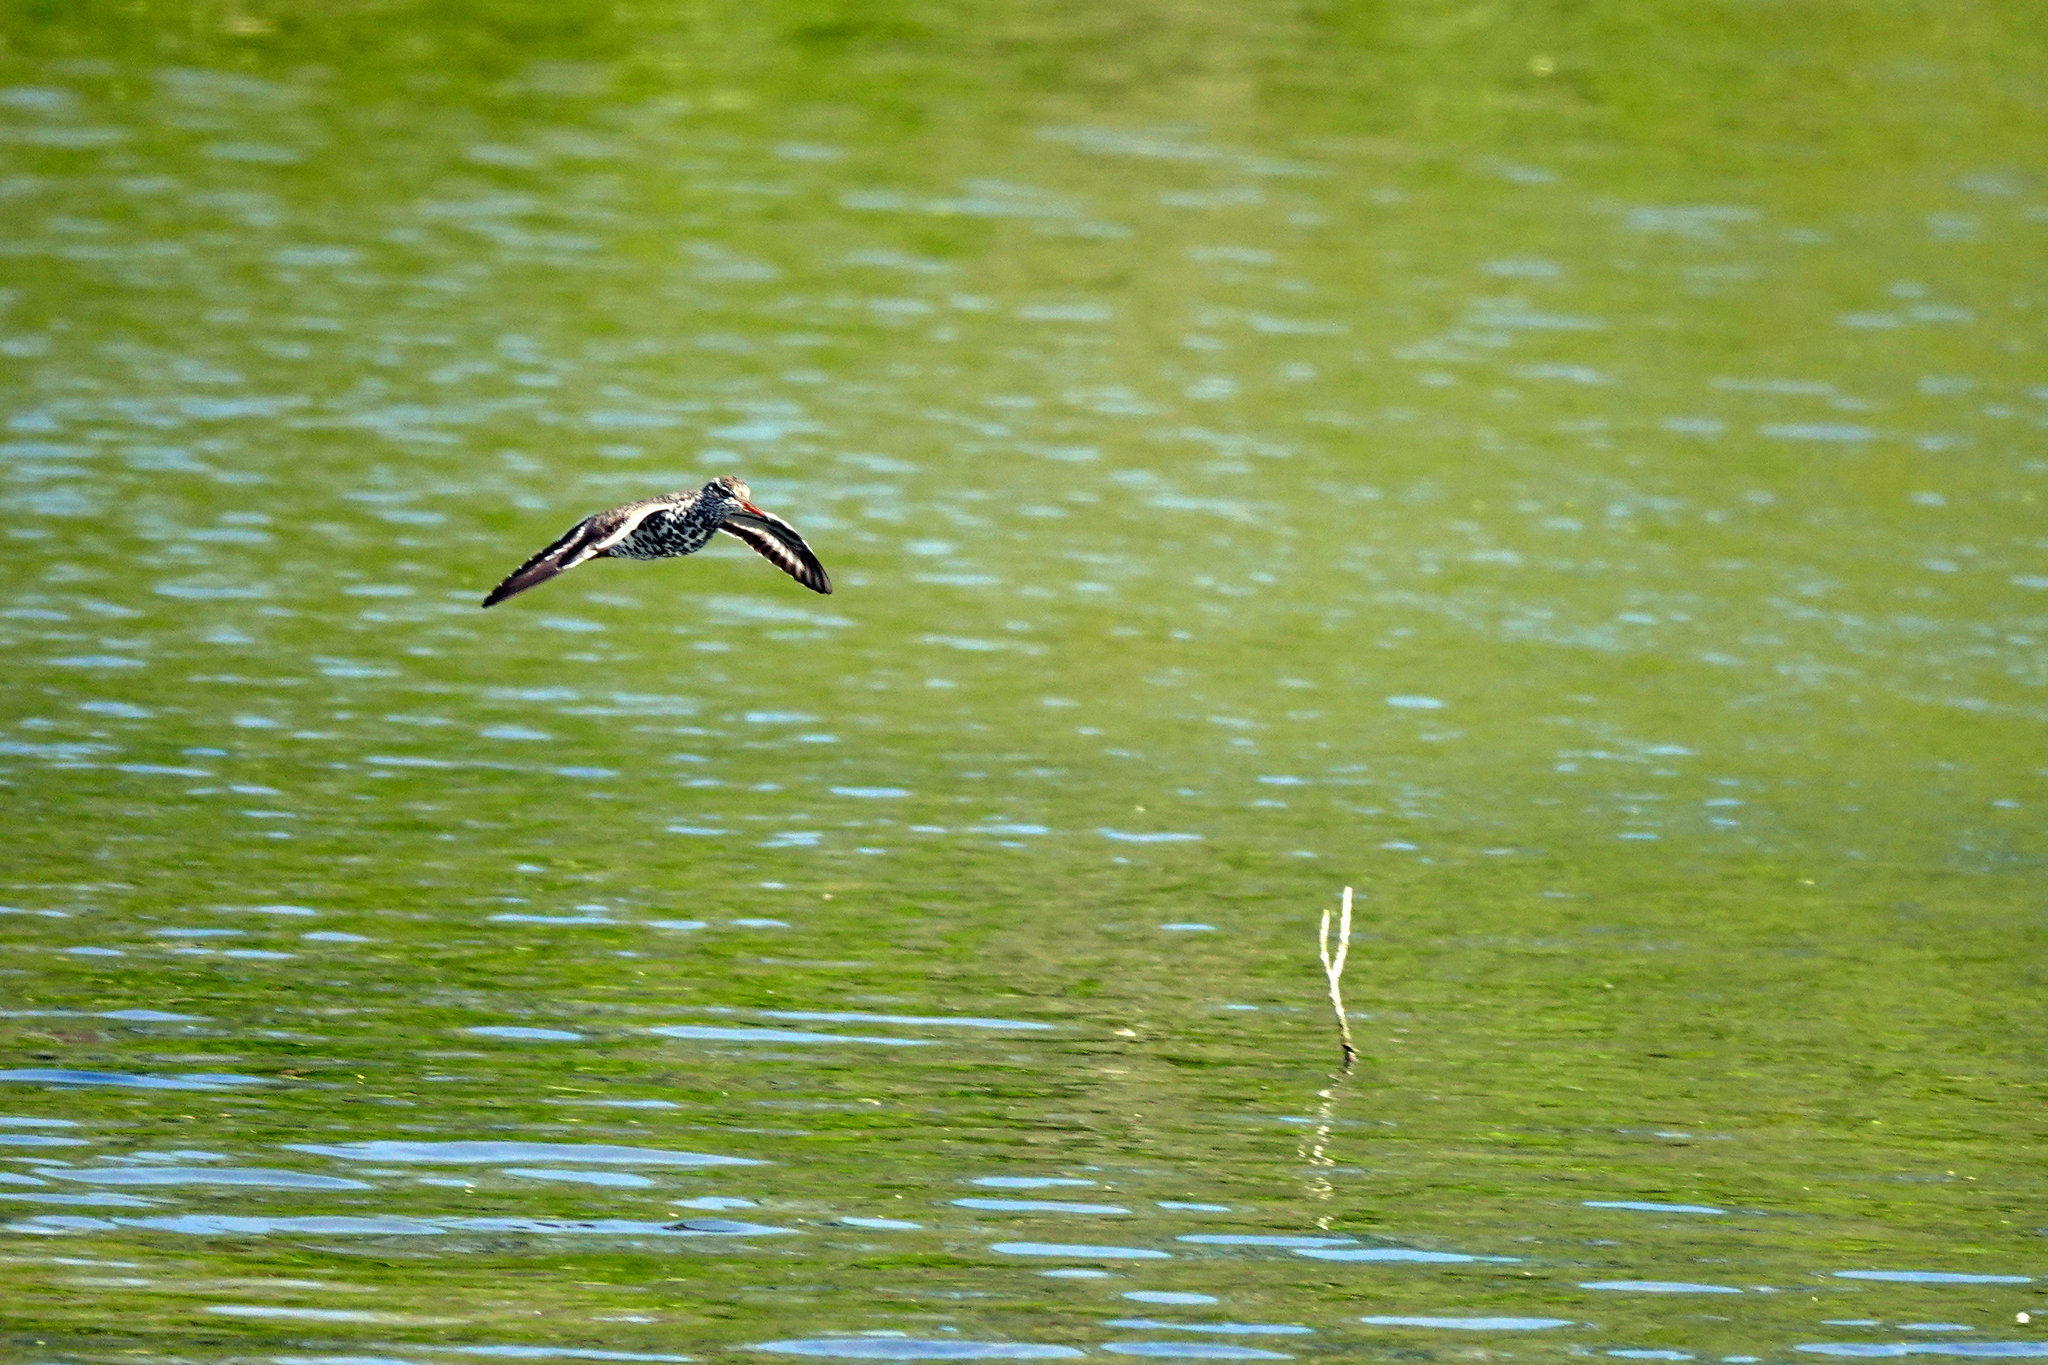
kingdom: Animalia
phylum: Chordata
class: Aves
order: Charadriiformes
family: Scolopacidae
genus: Actitis
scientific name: Actitis macularius
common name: Spotted sandpiper
